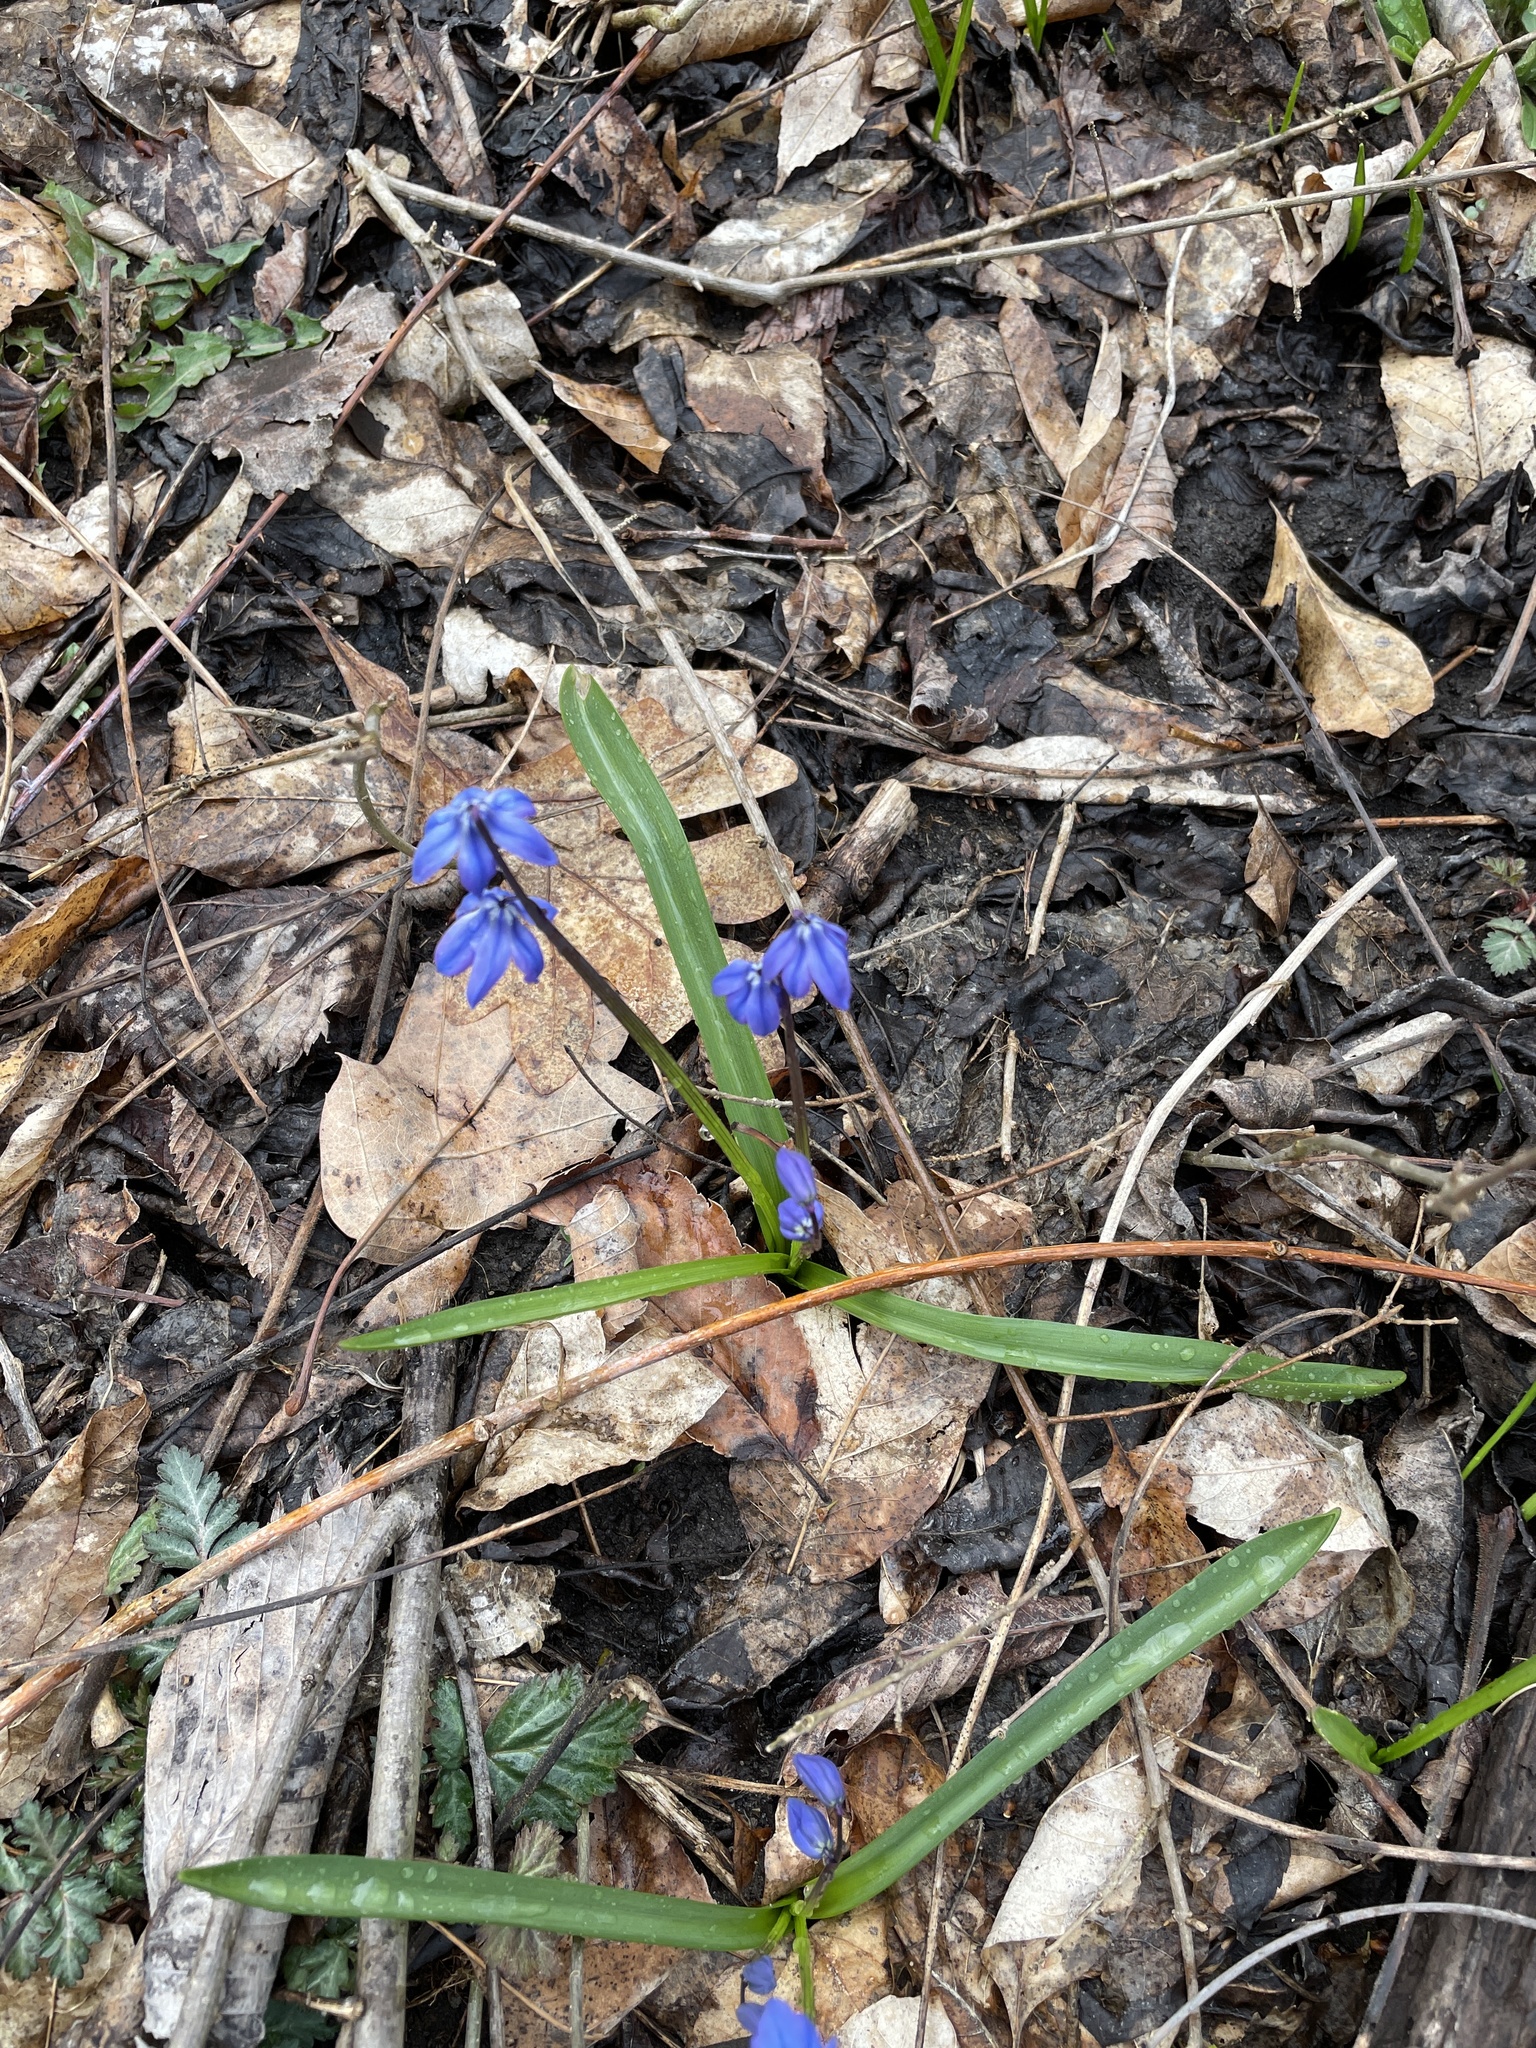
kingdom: Plantae
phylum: Tracheophyta
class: Liliopsida
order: Asparagales
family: Asparagaceae
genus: Scilla
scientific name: Scilla siberica
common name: Siberian squill
